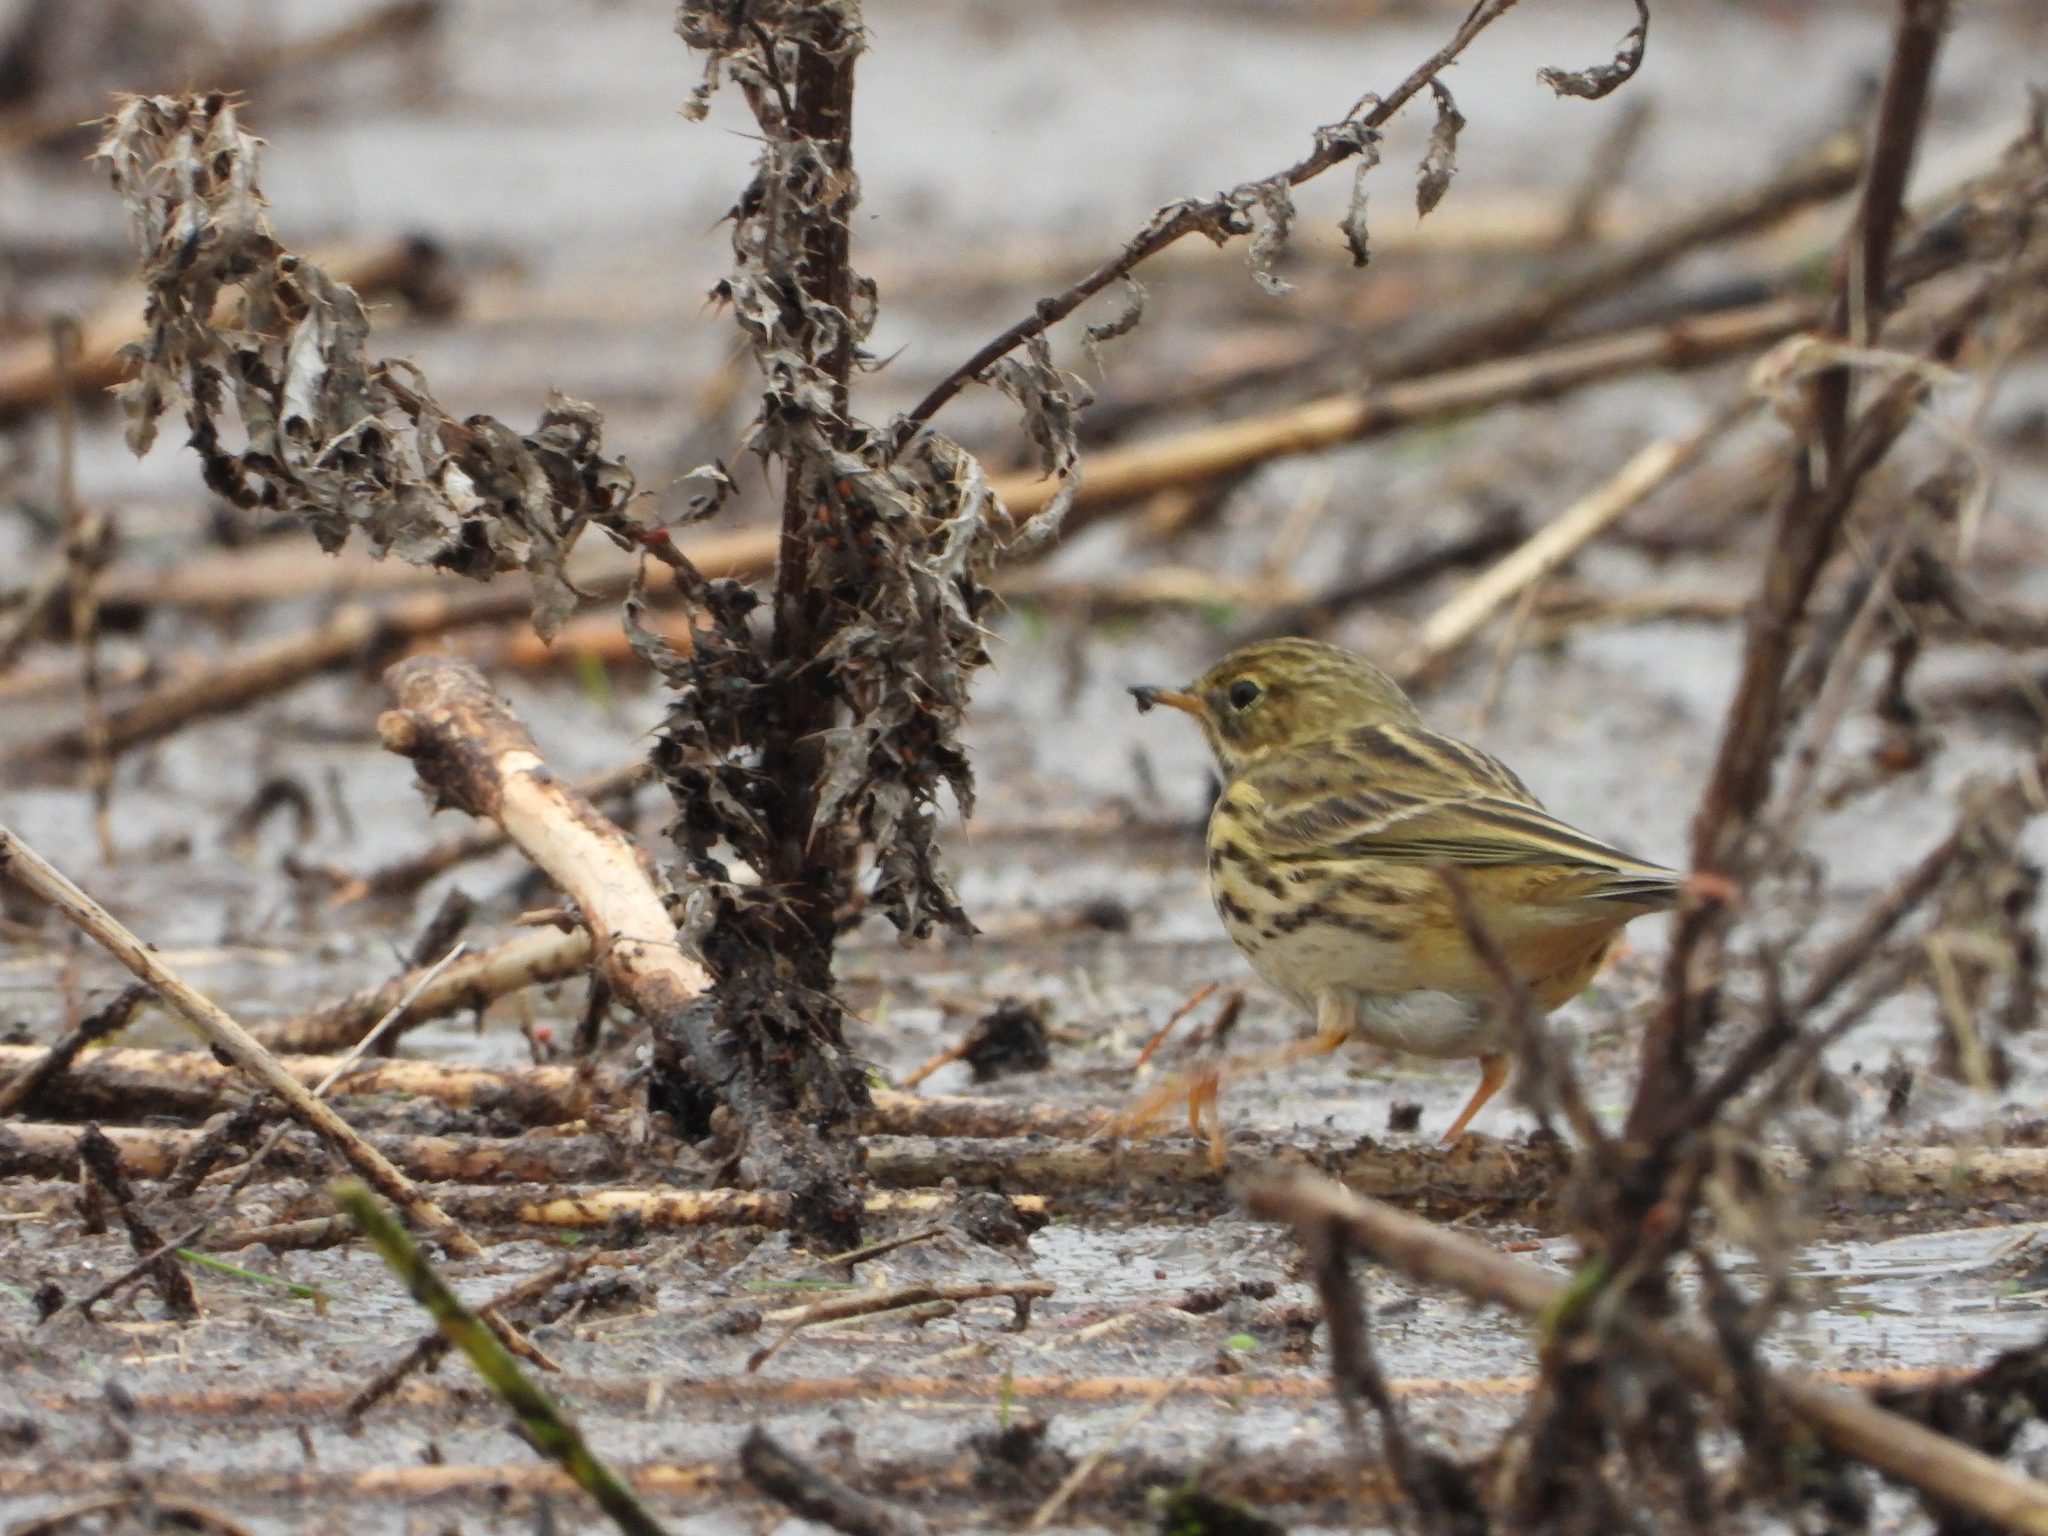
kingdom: Animalia
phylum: Chordata
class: Aves
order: Passeriformes
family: Motacillidae
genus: Anthus
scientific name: Anthus pratensis
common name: Meadow pipit
